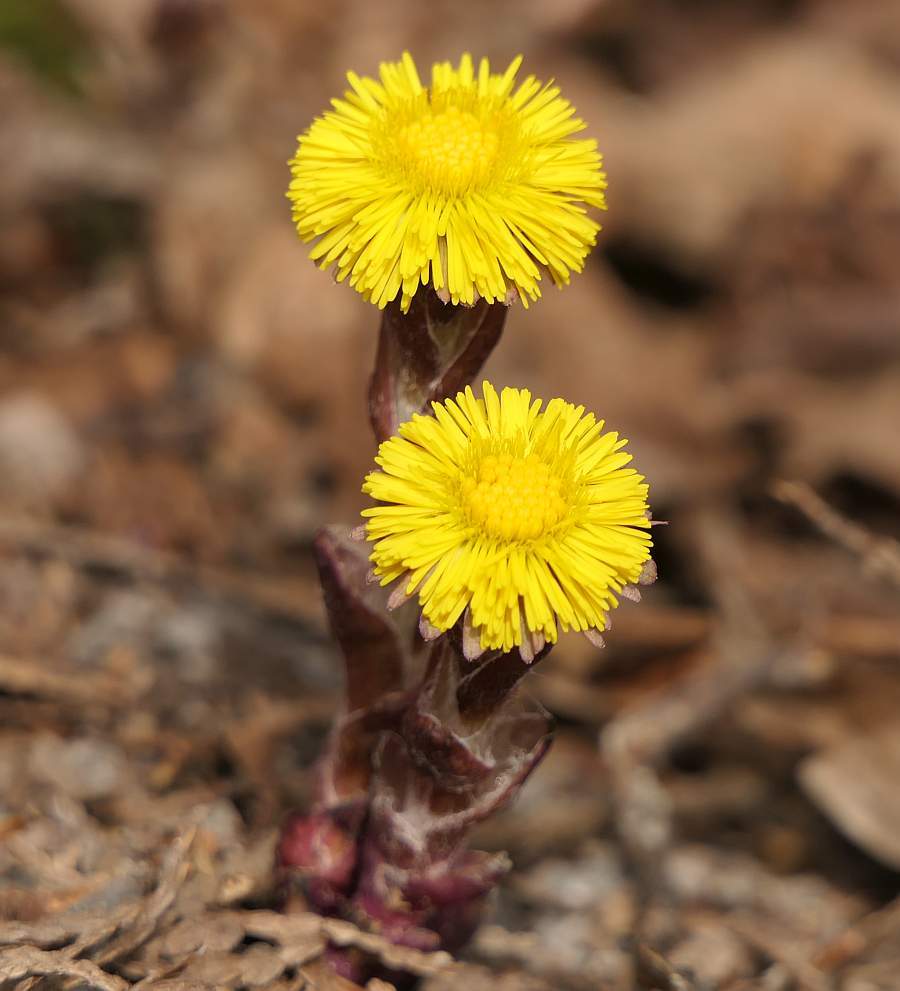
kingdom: Plantae
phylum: Tracheophyta
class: Magnoliopsida
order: Asterales
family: Asteraceae
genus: Tussilago
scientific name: Tussilago farfara
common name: Coltsfoot
